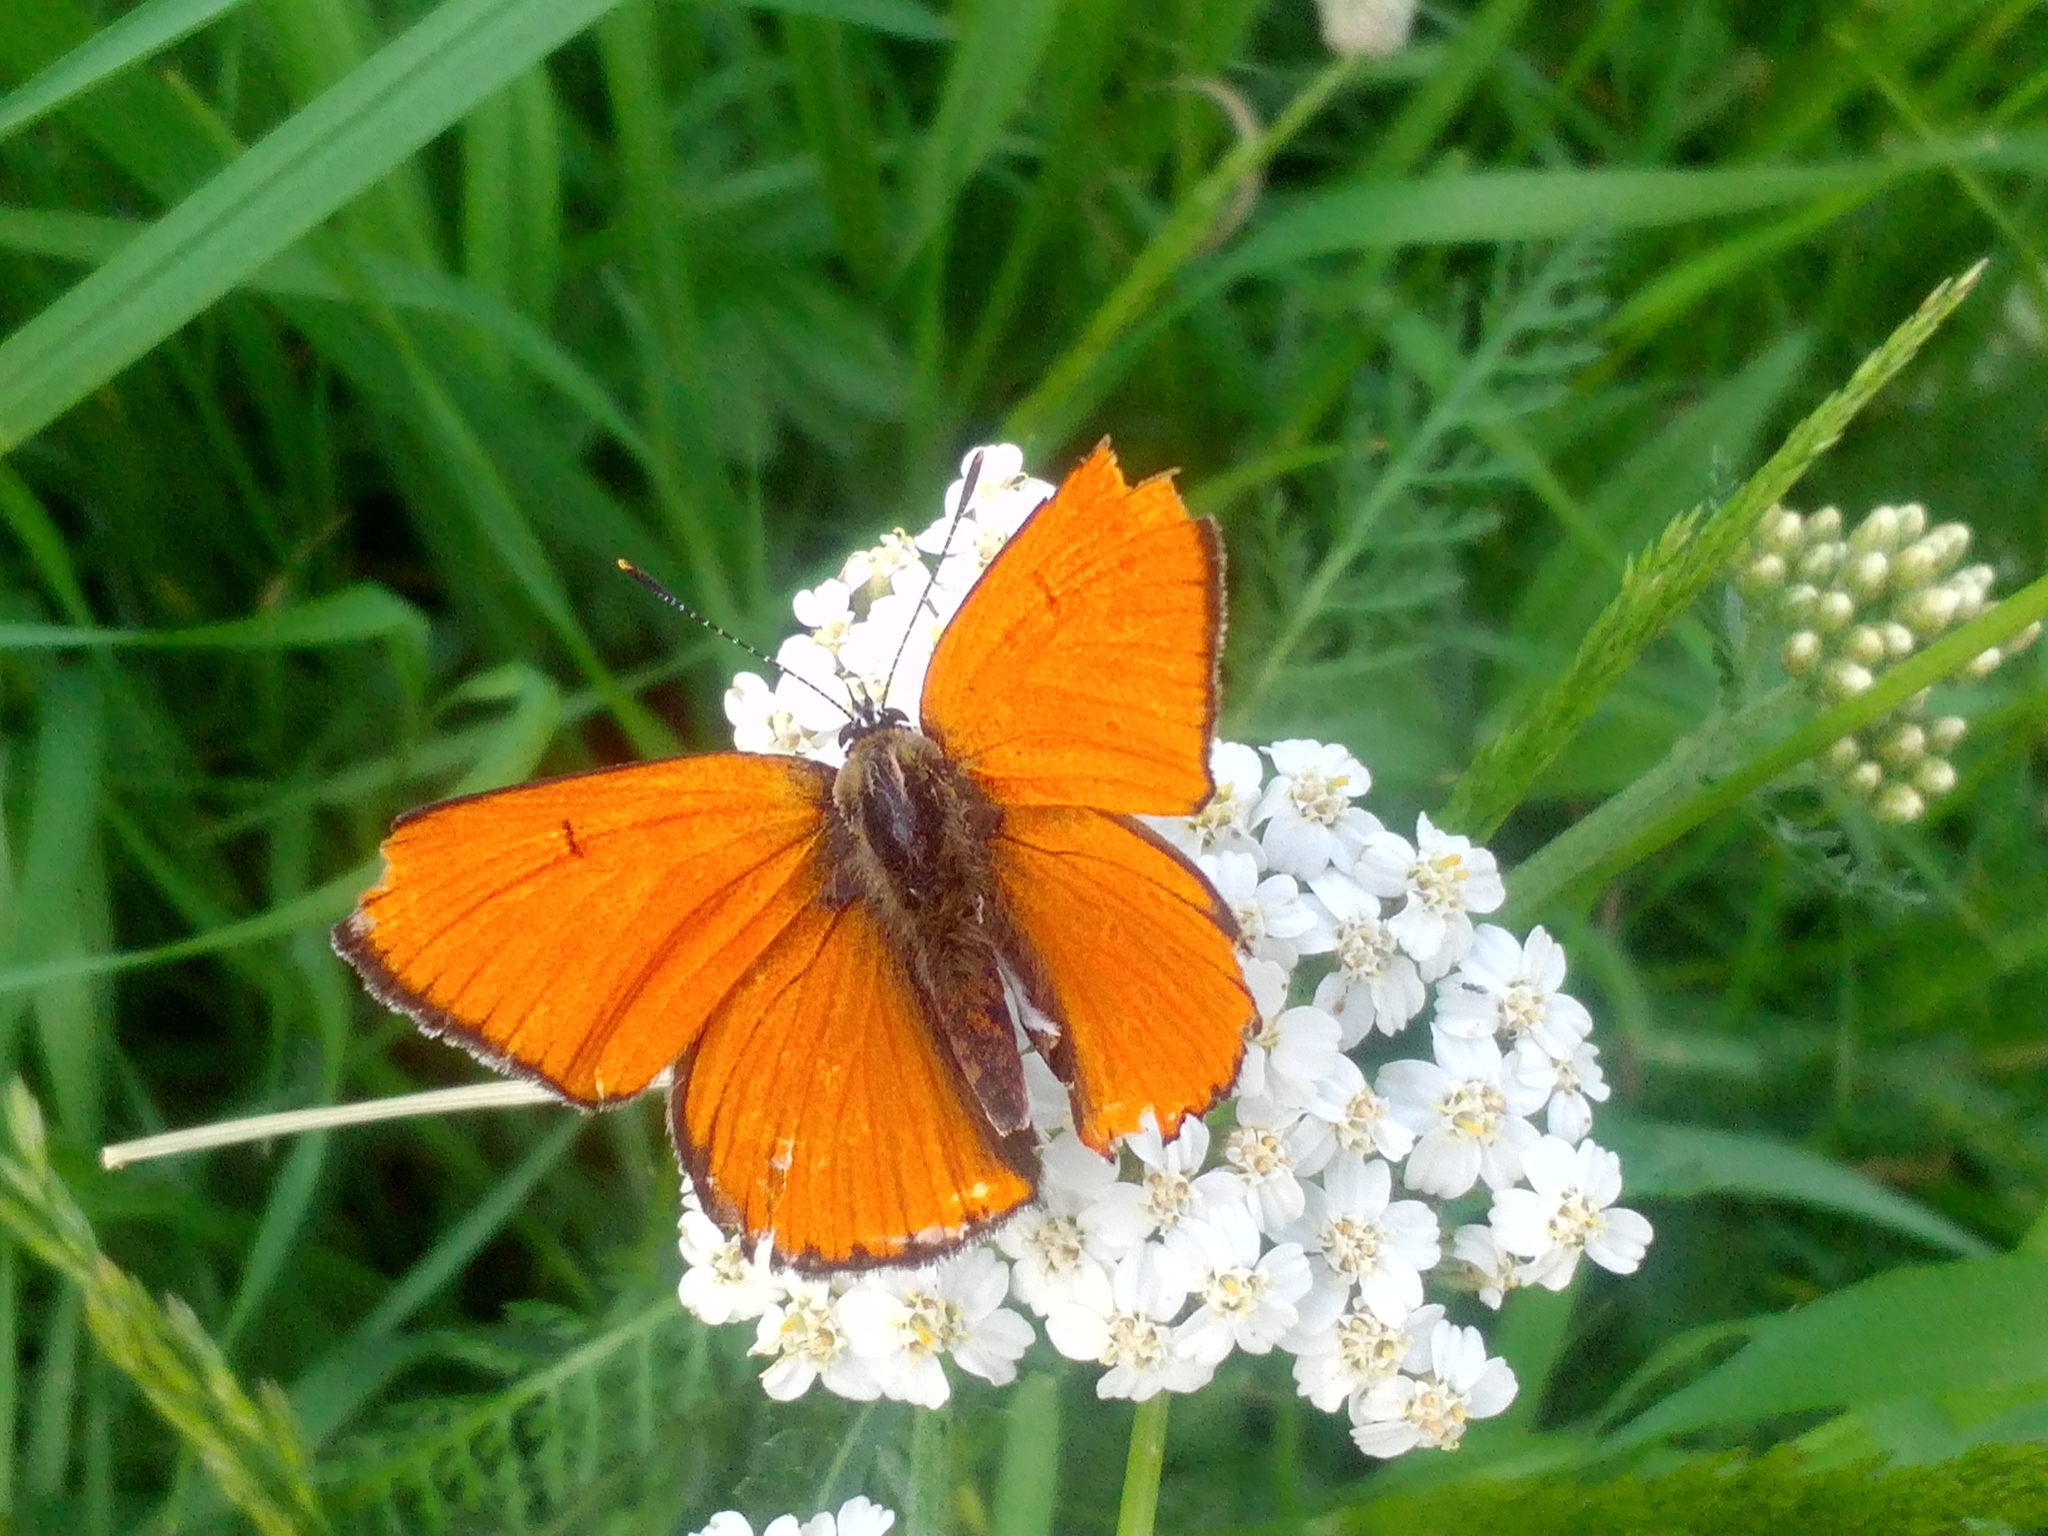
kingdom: Animalia
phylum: Arthropoda
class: Insecta
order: Lepidoptera
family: Lycaenidae
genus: Lycaena
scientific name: Lycaena dispar
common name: Large copper
